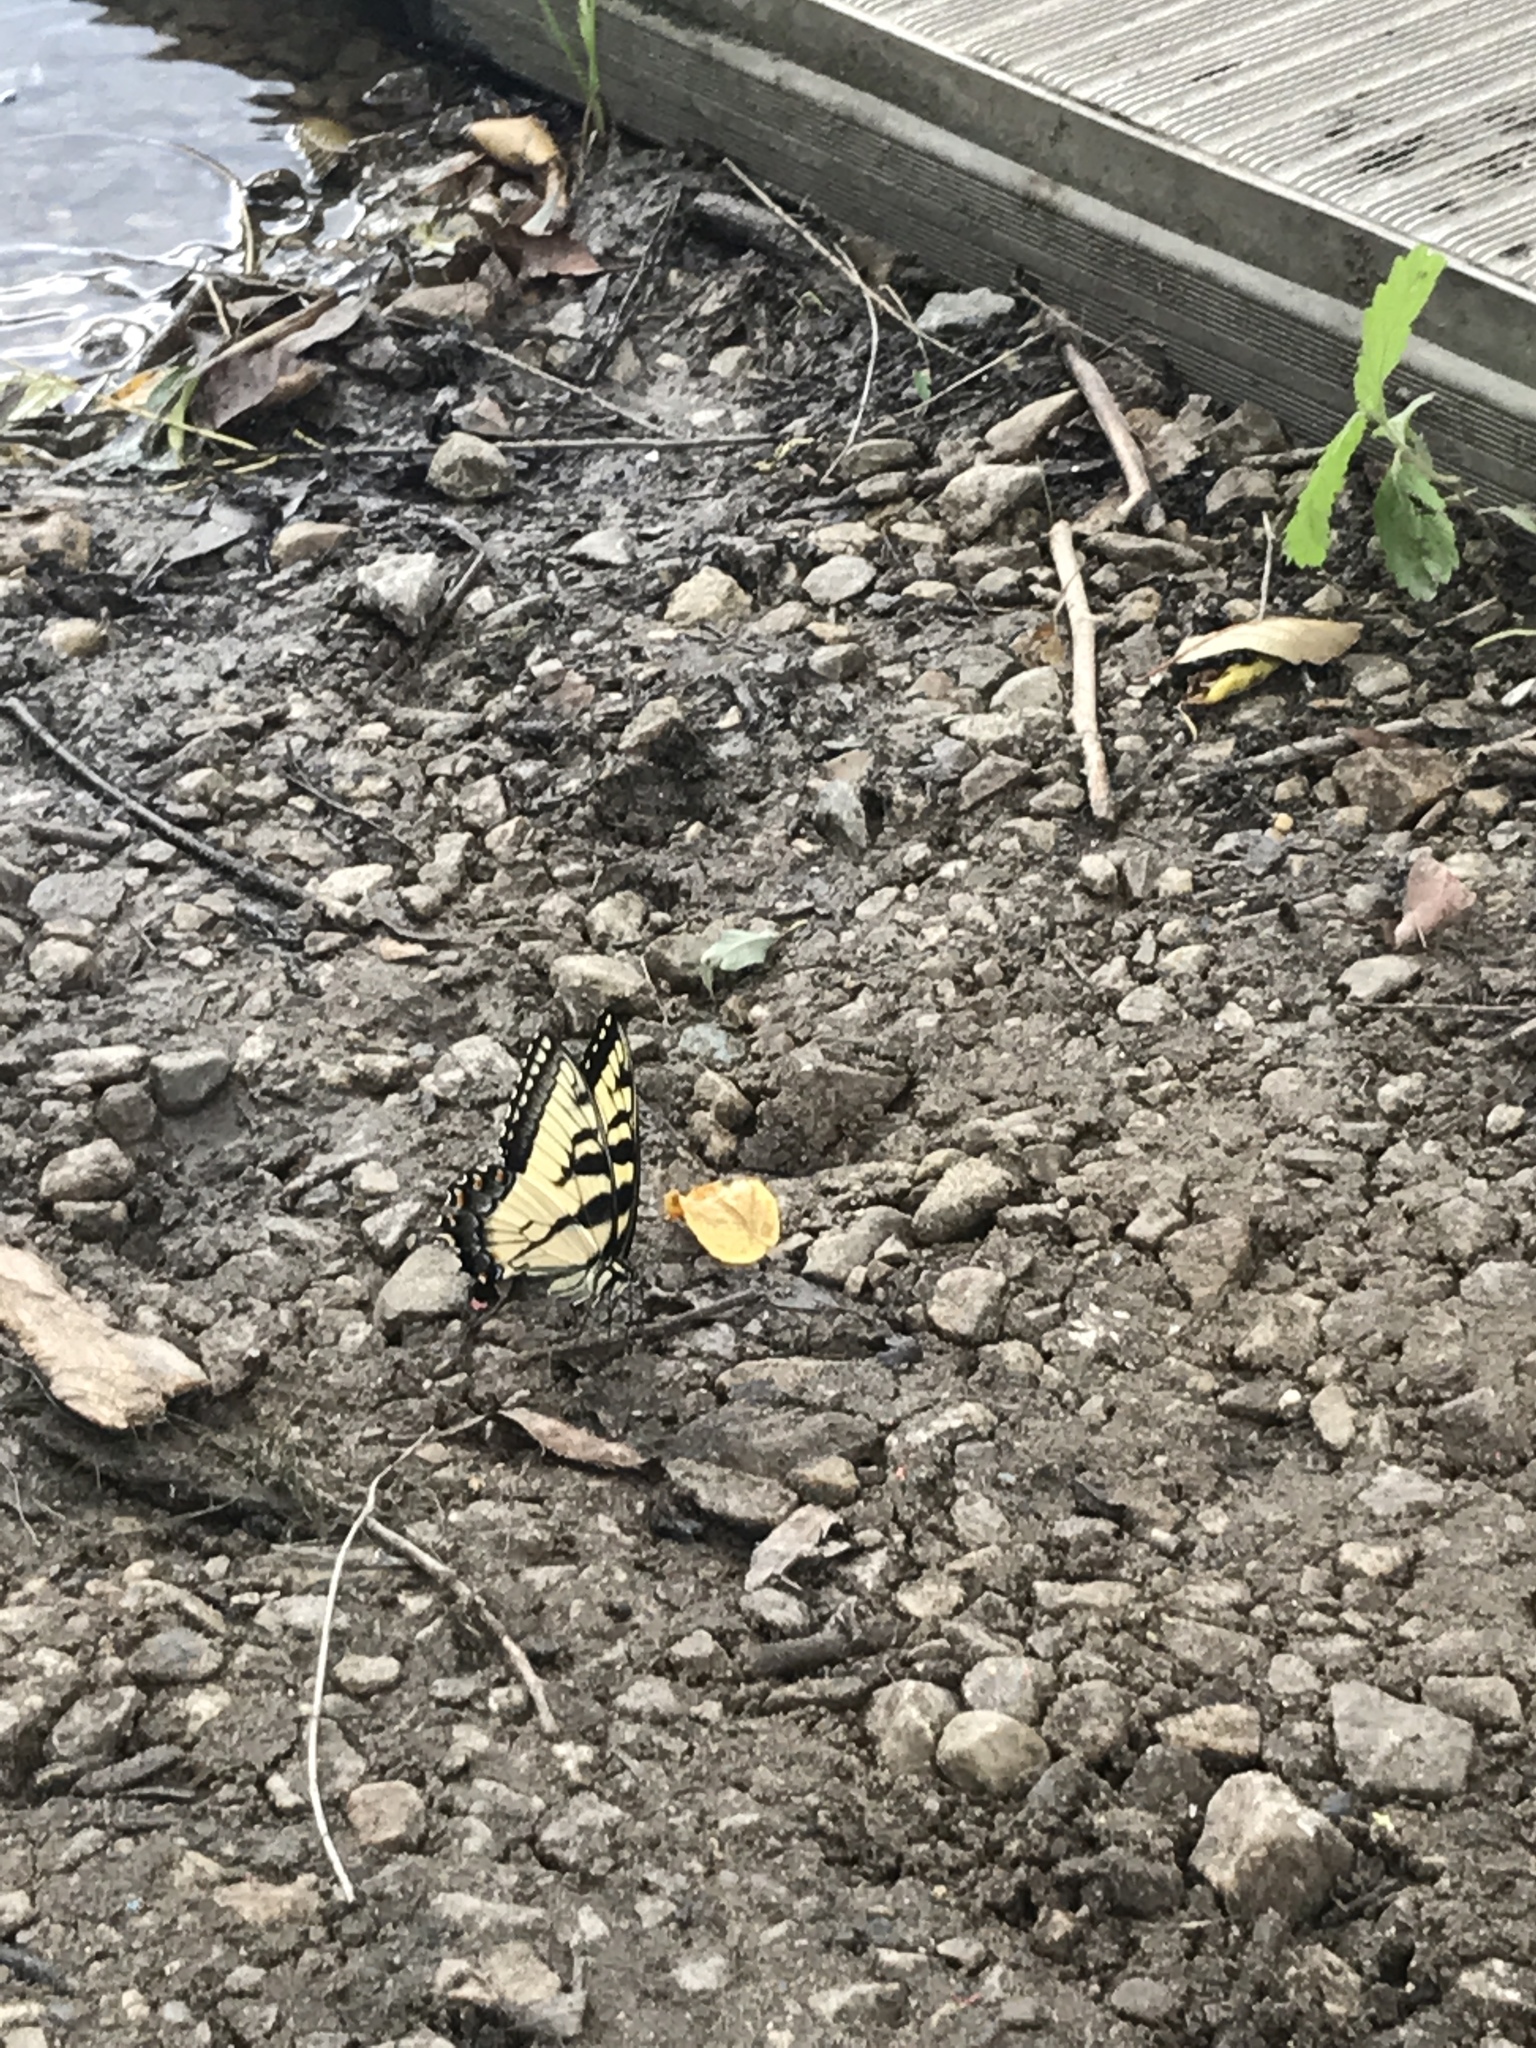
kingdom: Animalia
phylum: Arthropoda
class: Insecta
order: Lepidoptera
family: Papilionidae
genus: Papilio
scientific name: Papilio glaucus
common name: Tiger swallowtail
